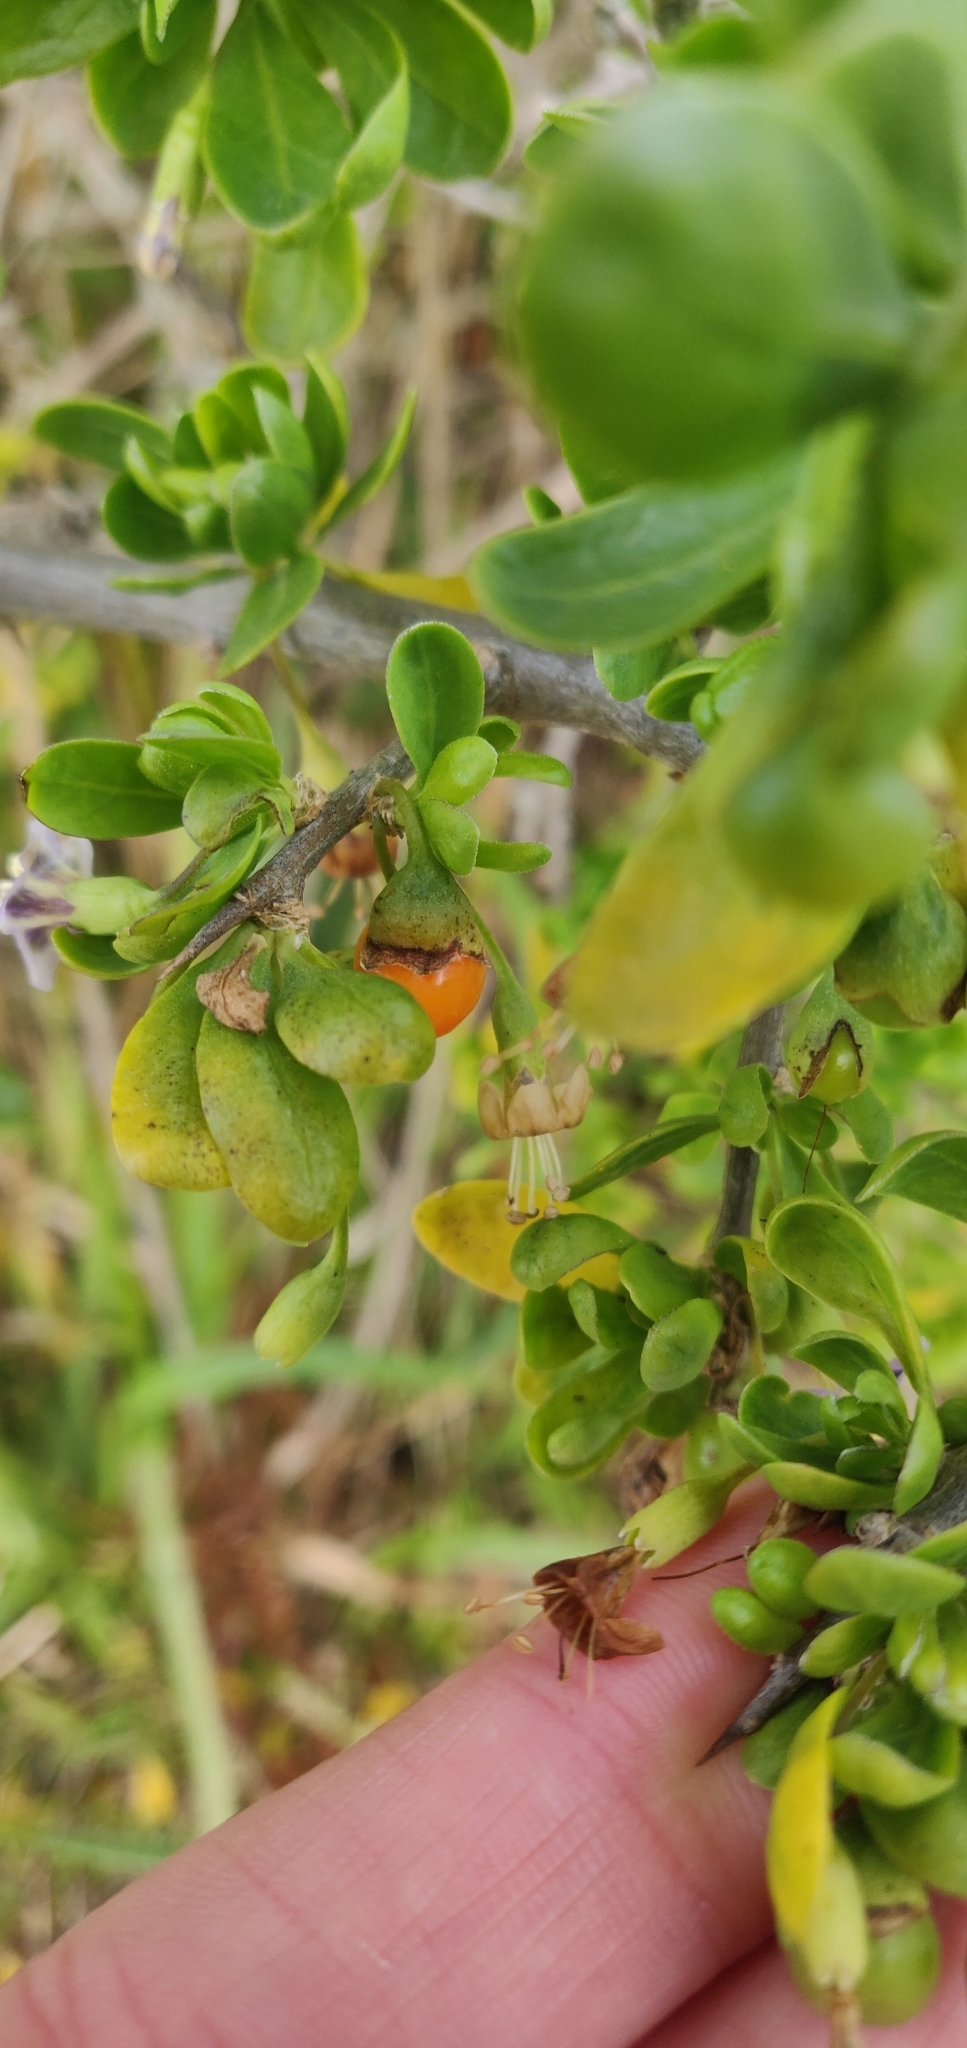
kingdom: Plantae
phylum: Tracheophyta
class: Magnoliopsida
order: Solanales
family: Solanaceae
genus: Lycium
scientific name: Lycium ferocissimum
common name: African boxthorn
